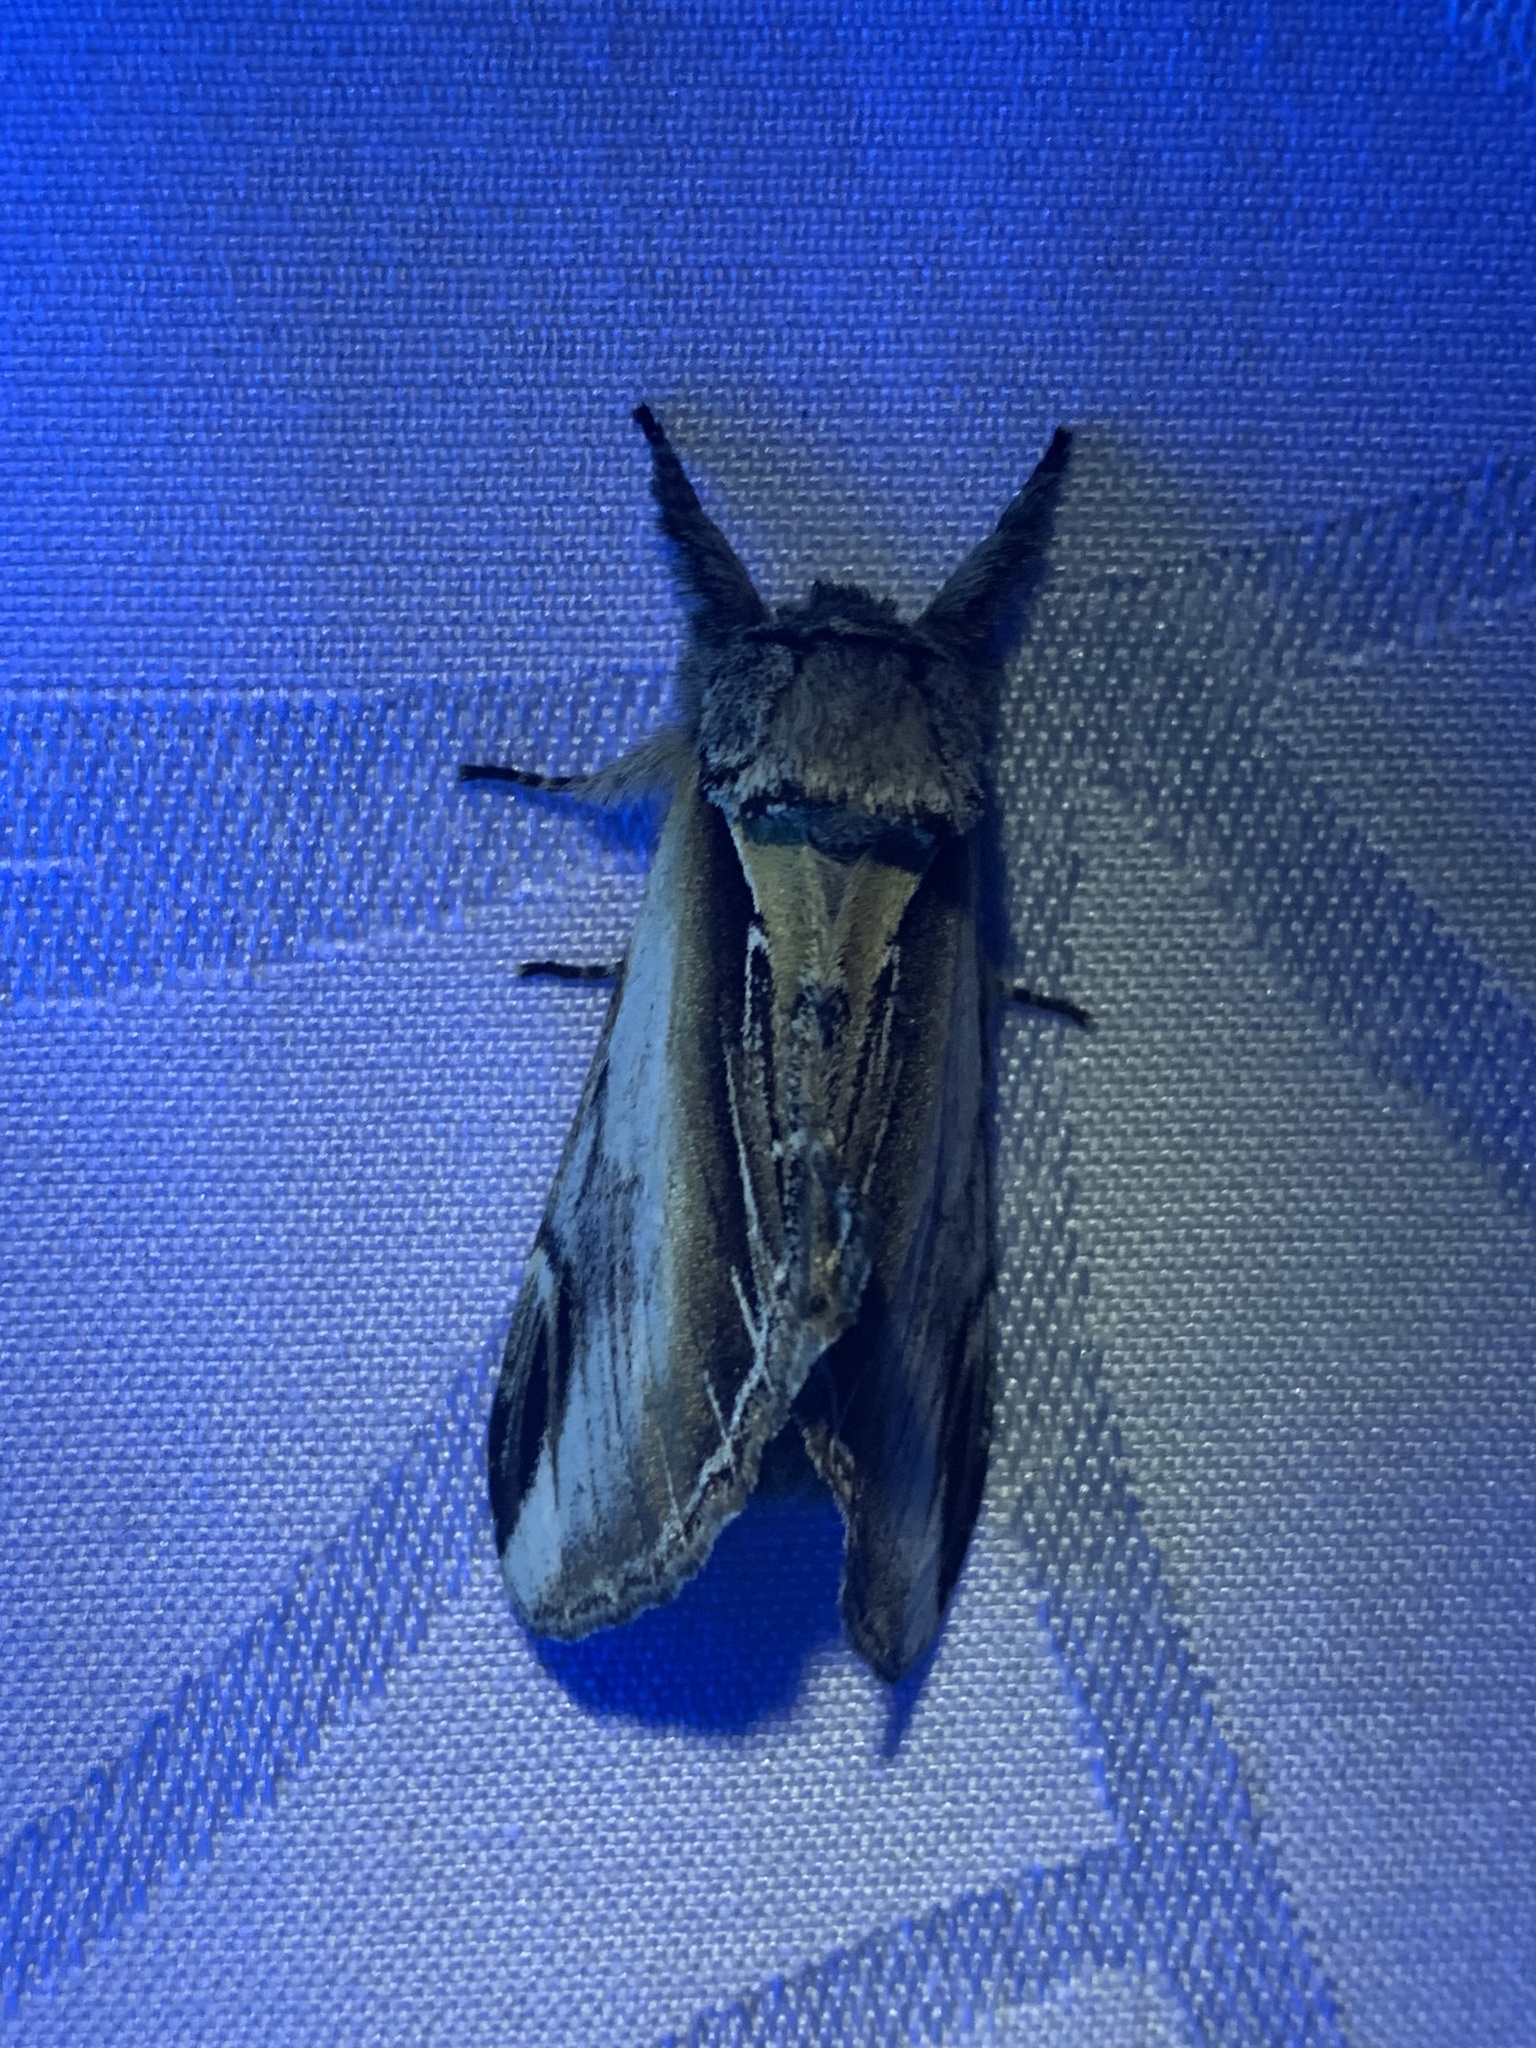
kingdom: Animalia
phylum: Arthropoda
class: Insecta
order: Lepidoptera
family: Notodontidae
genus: Pheosia
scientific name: Pheosia rimosa
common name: Black-rimmed prominent
